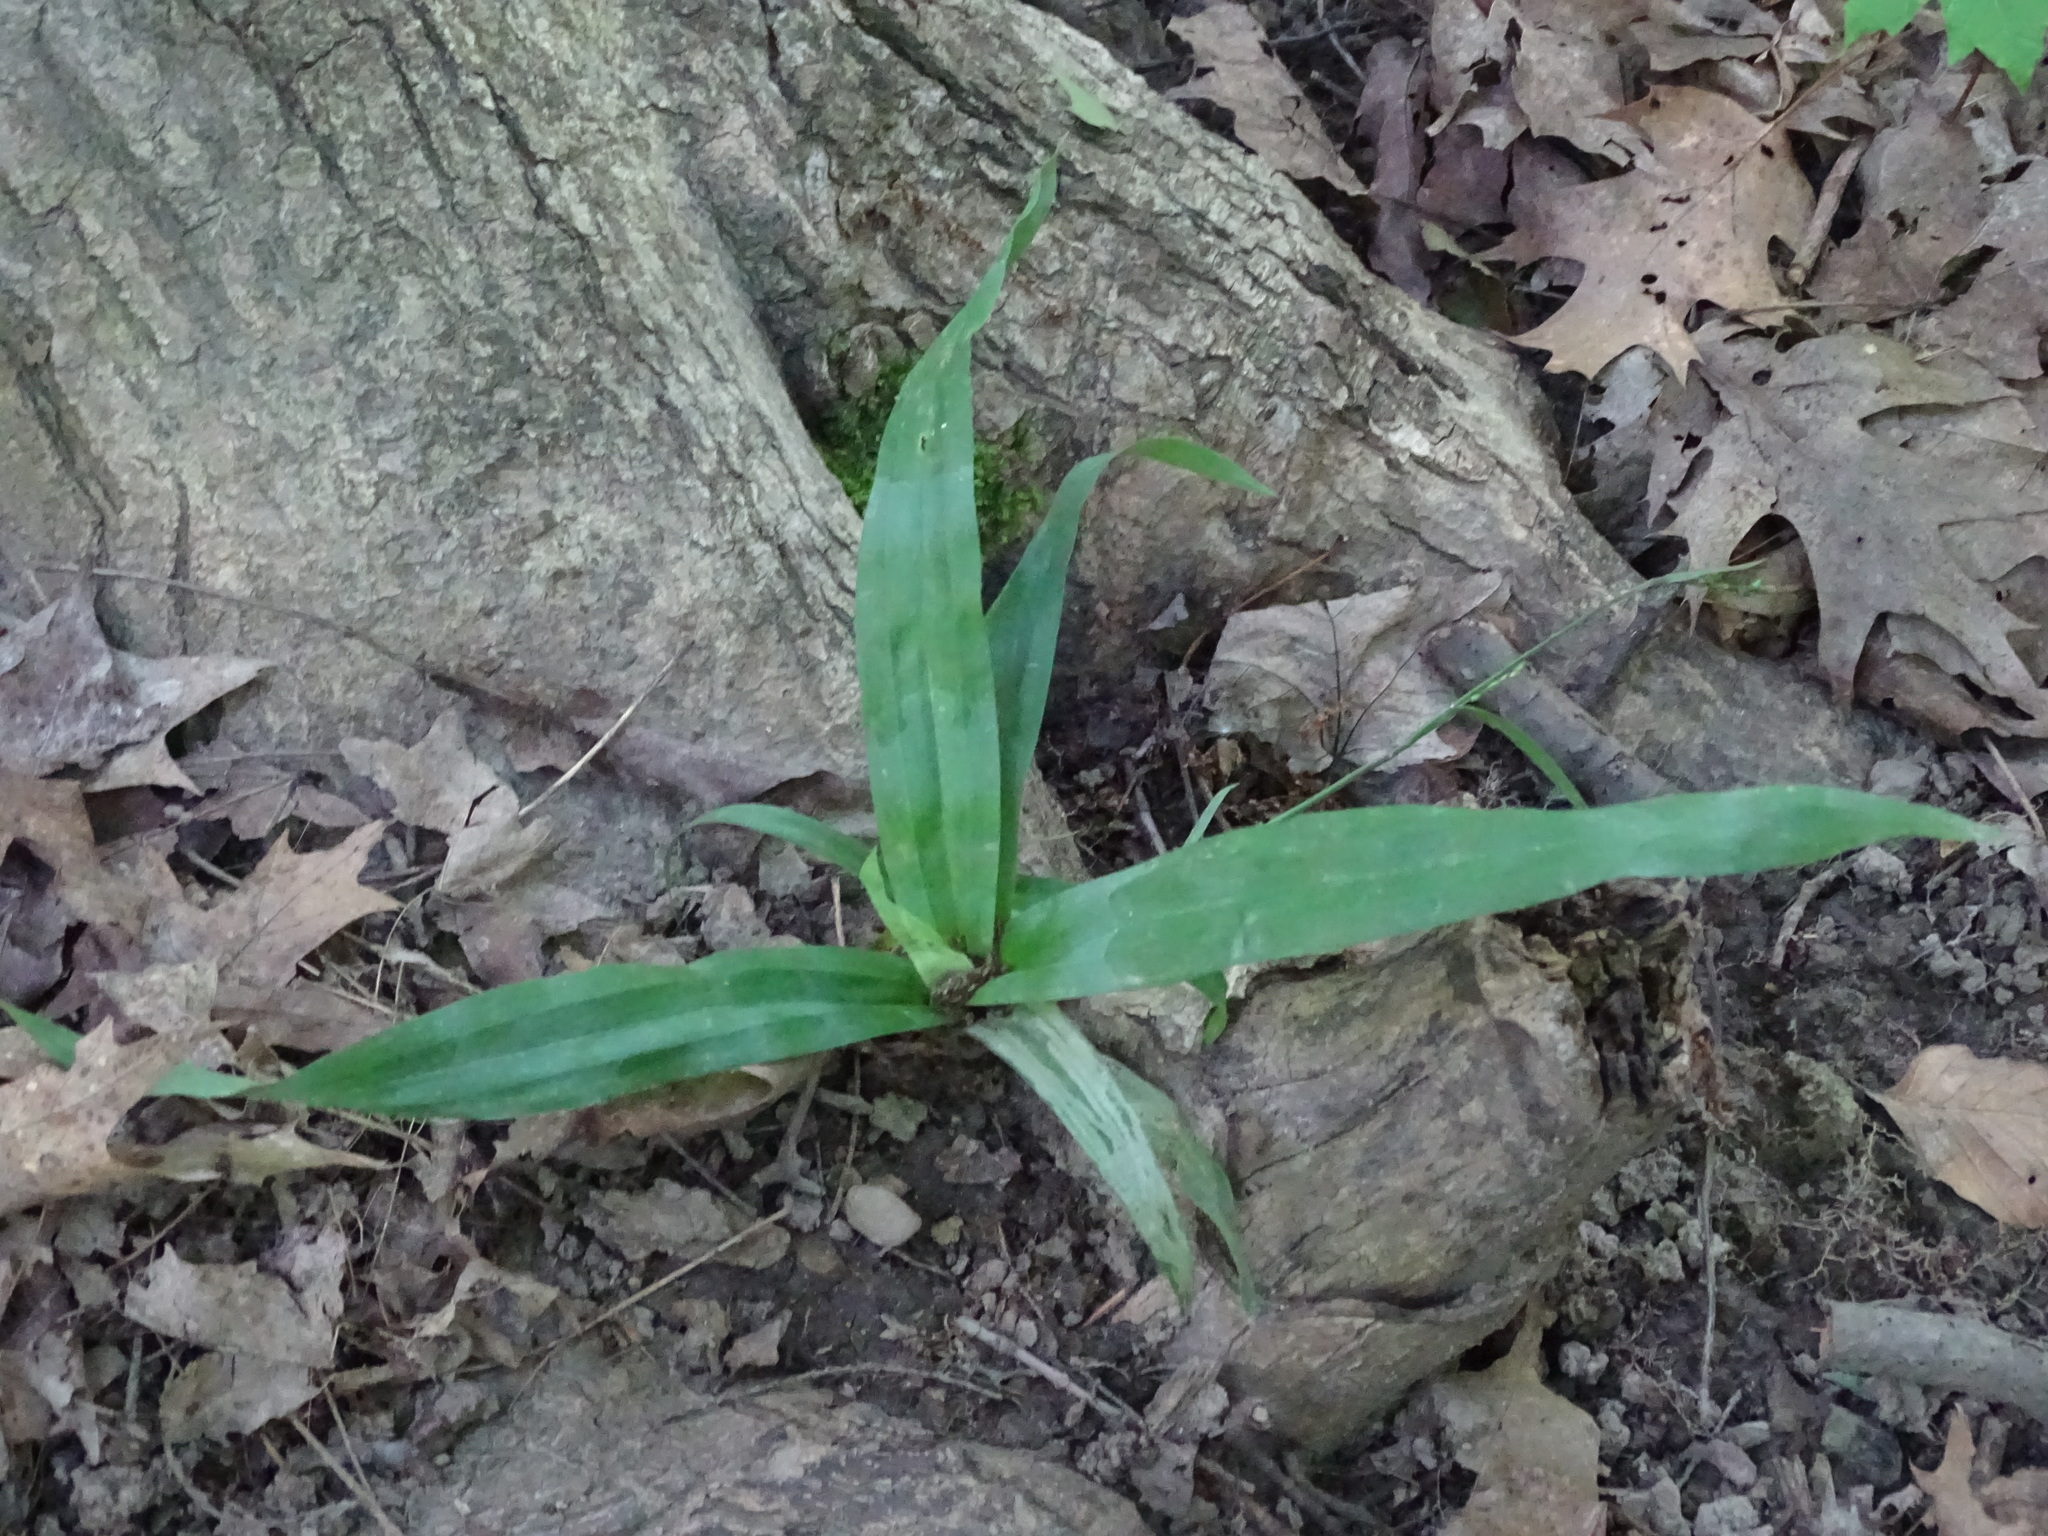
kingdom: Plantae
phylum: Tracheophyta
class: Liliopsida
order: Poales
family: Cyperaceae
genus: Carex
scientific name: Carex platyphylla
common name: Broad-leaved sedge
